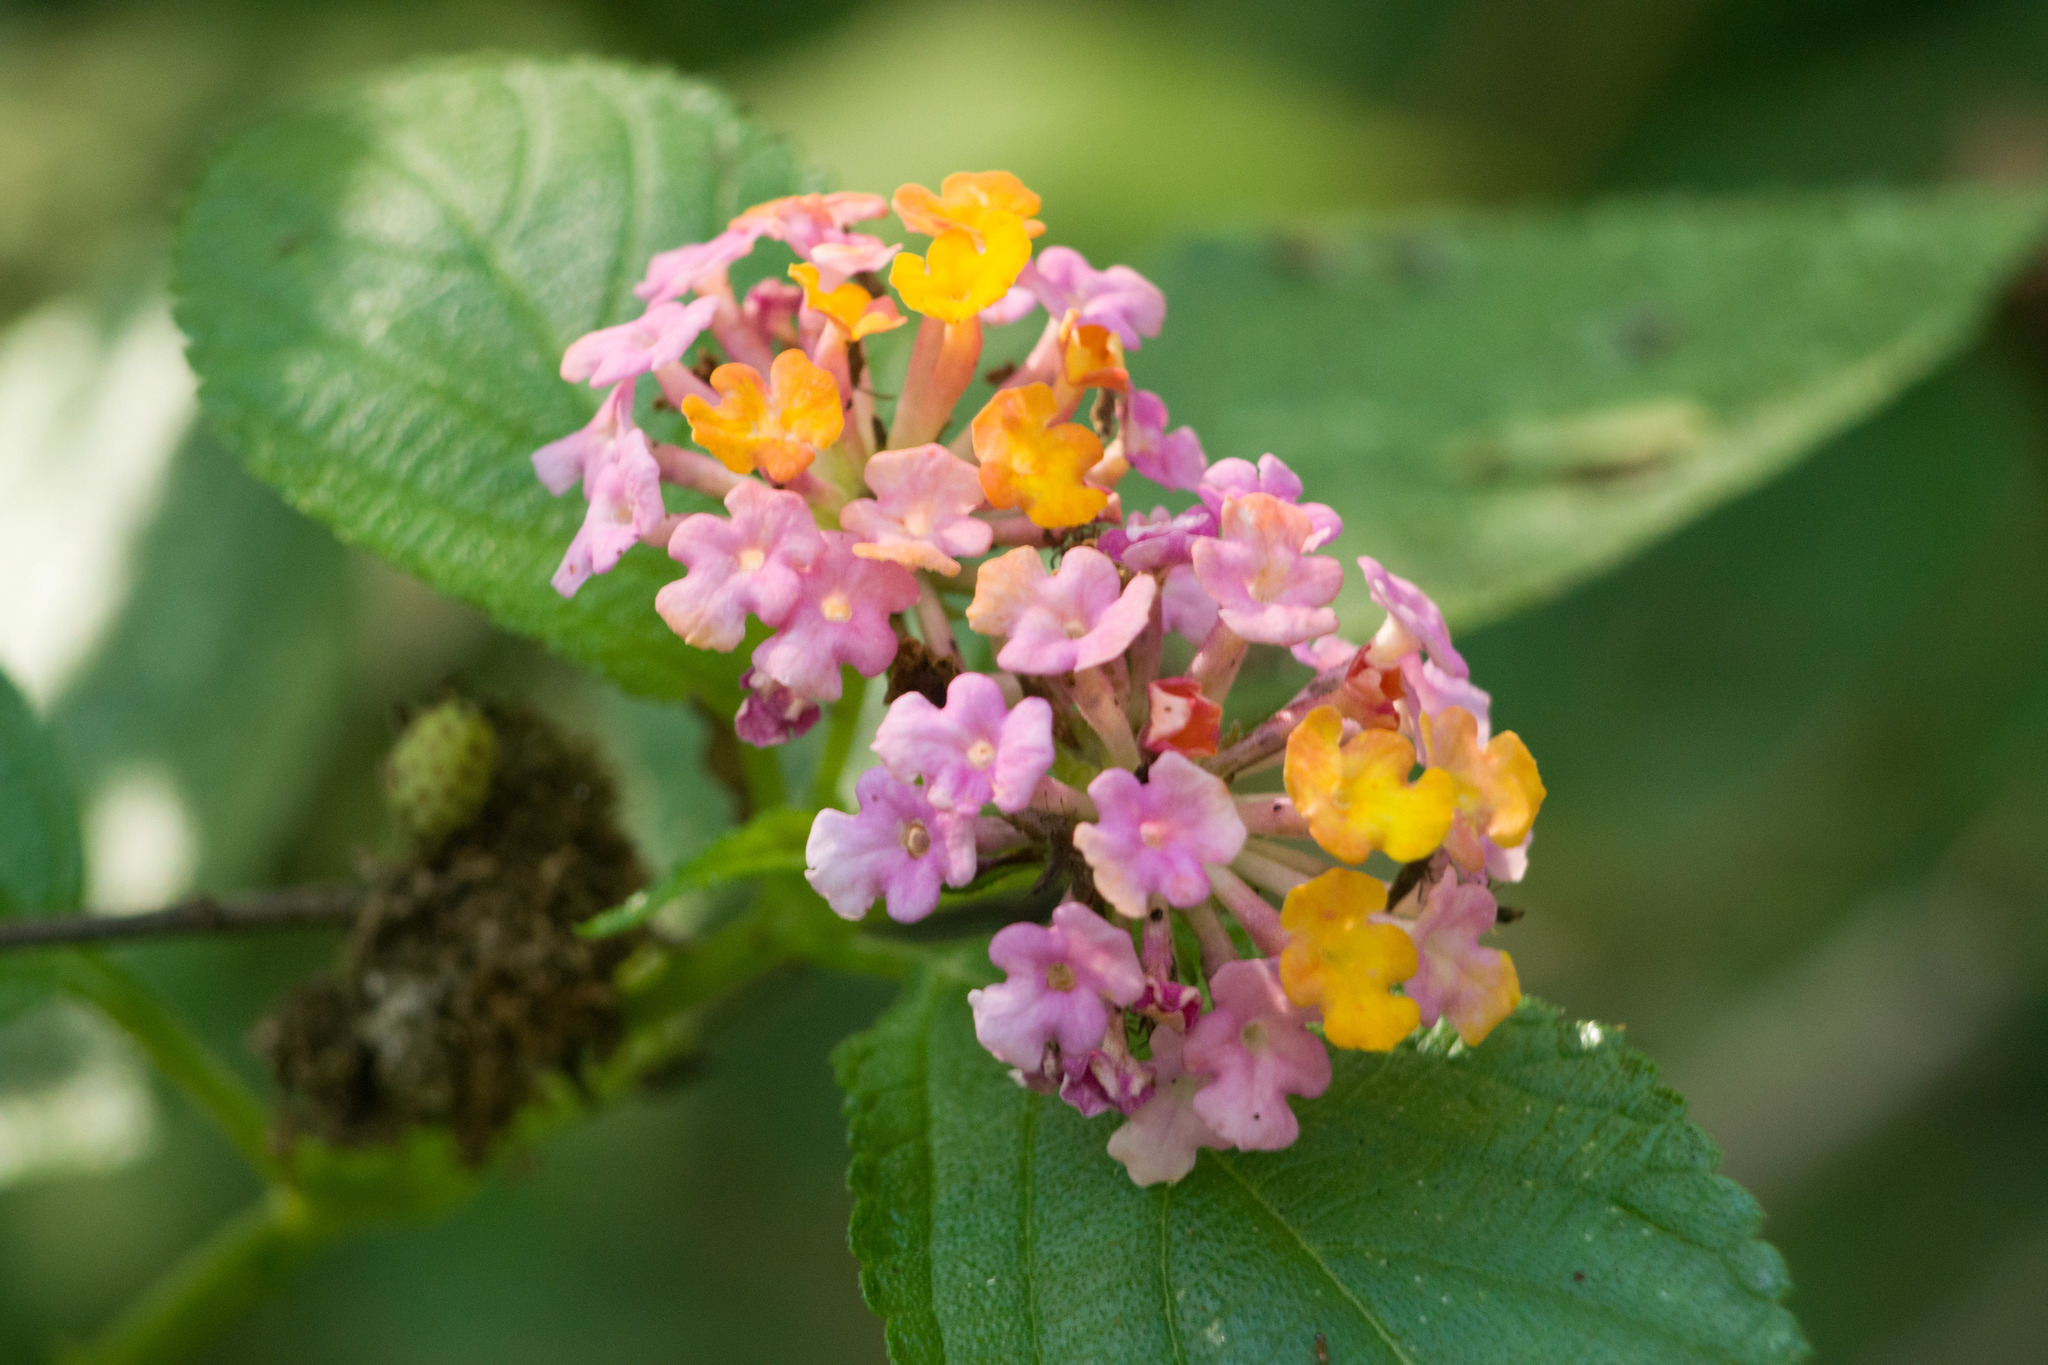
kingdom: Plantae
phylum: Tracheophyta
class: Magnoliopsida
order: Lamiales
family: Verbenaceae
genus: Lantana
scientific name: Lantana camara
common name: Lantana
